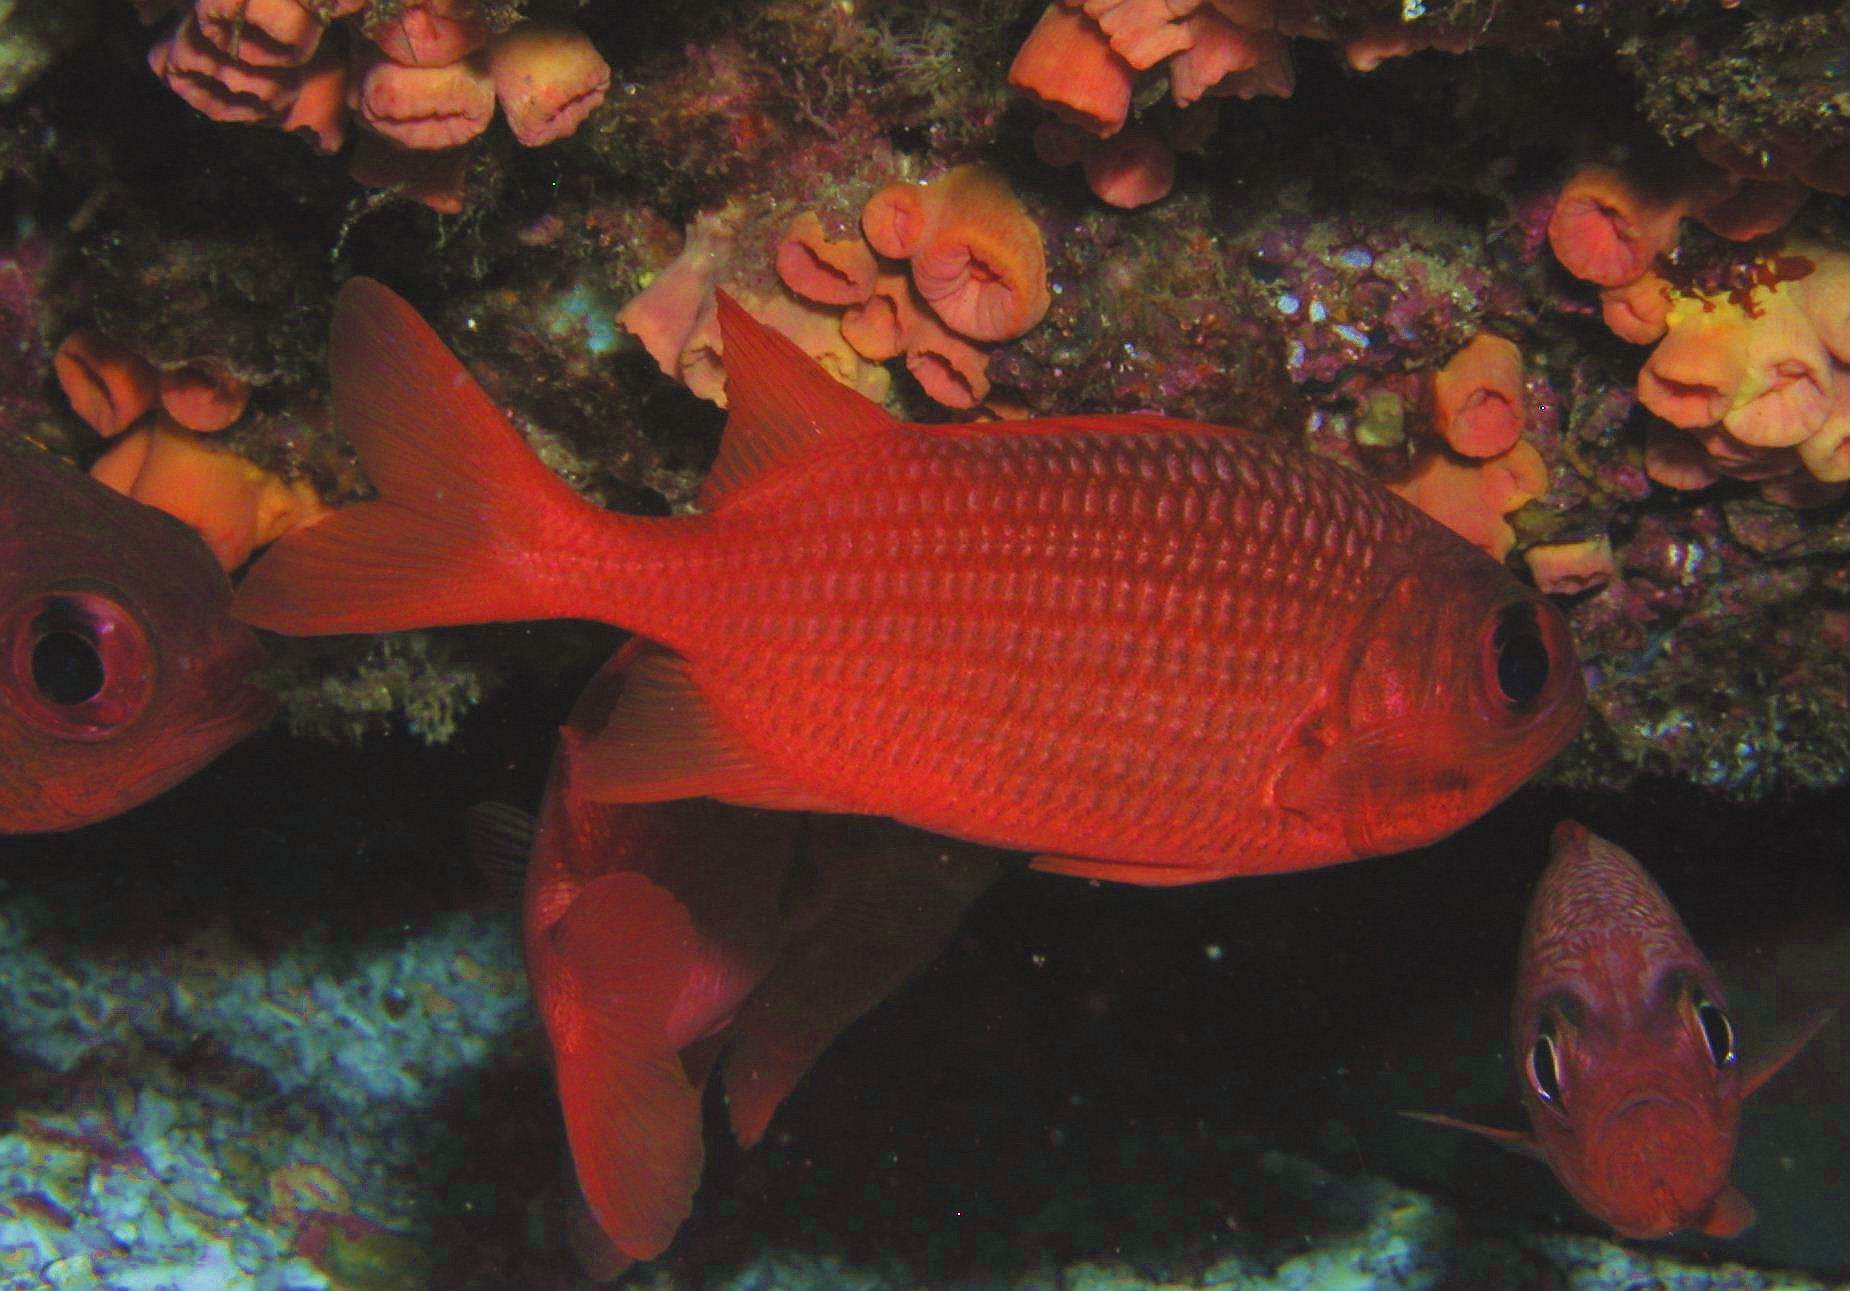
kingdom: Animalia
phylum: Chordata
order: Beryciformes
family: Holocentridae
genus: Myripristis
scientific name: Myripristis leiognathus
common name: Panamic soldierfish
